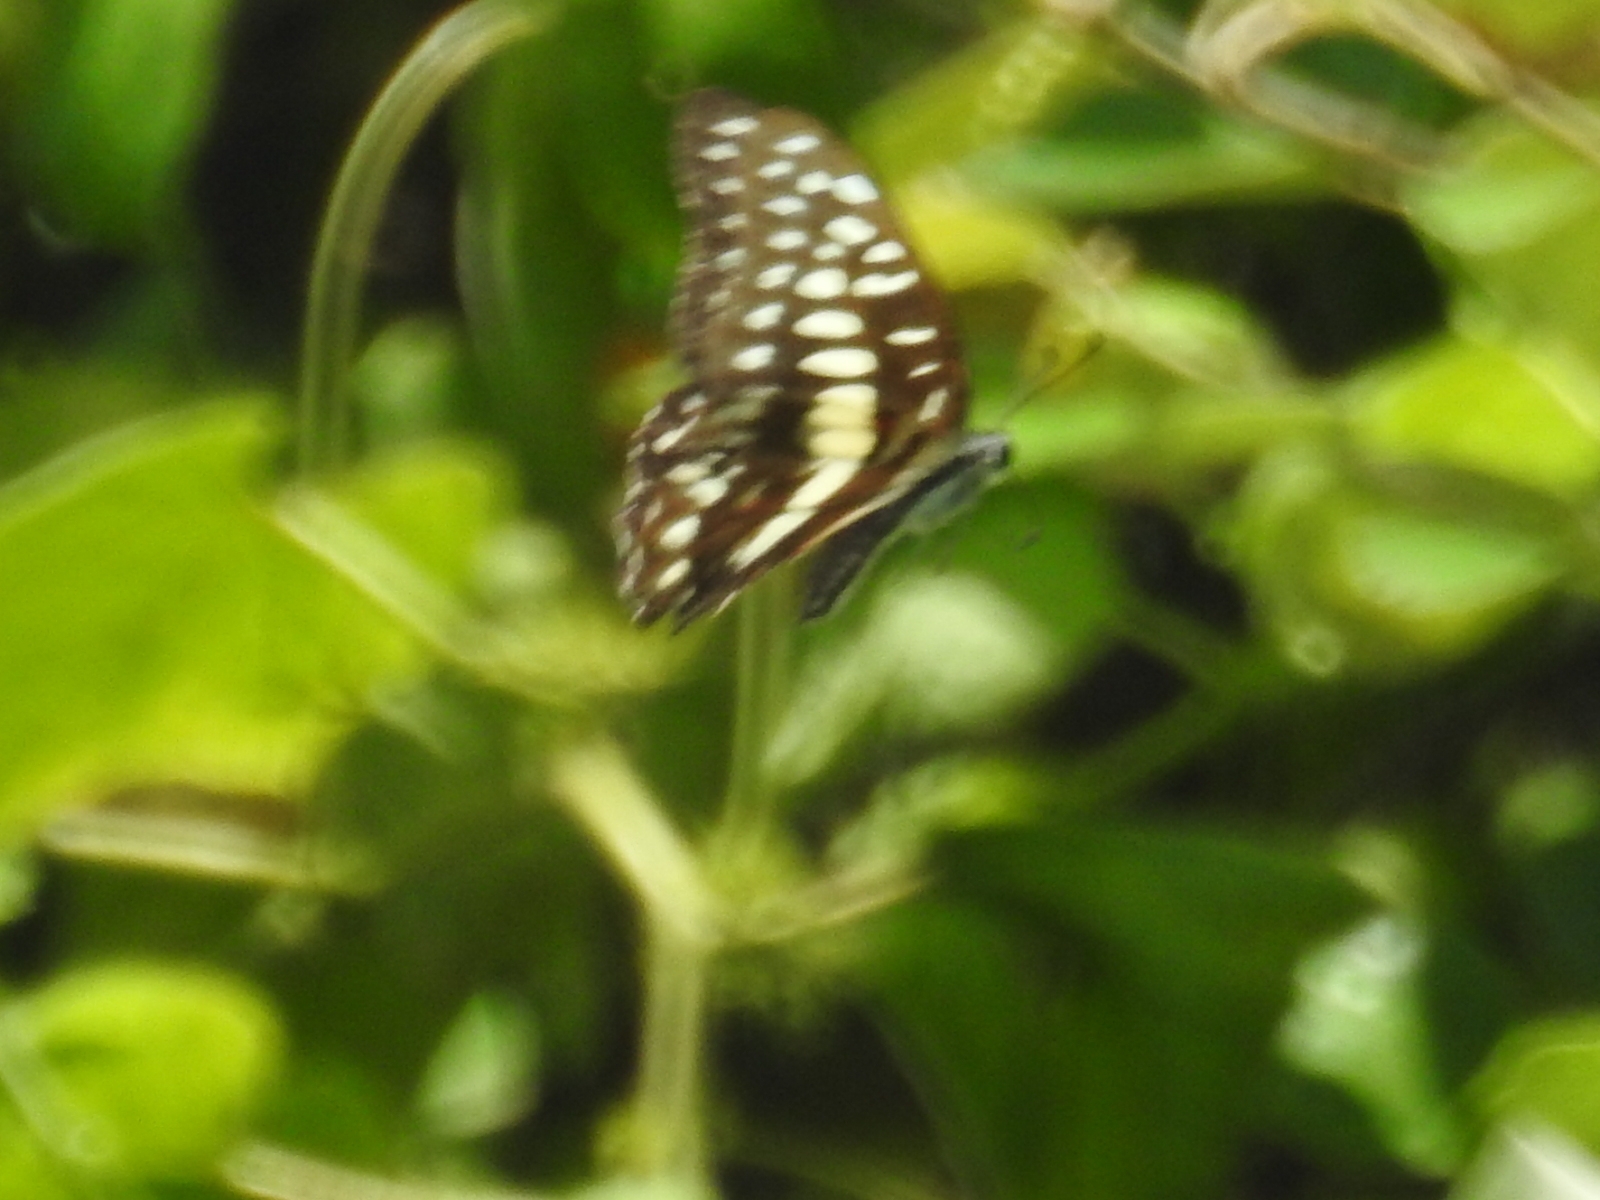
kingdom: Animalia
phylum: Arthropoda
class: Insecta
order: Lepidoptera
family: Papilionidae
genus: Graphium
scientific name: Graphium
